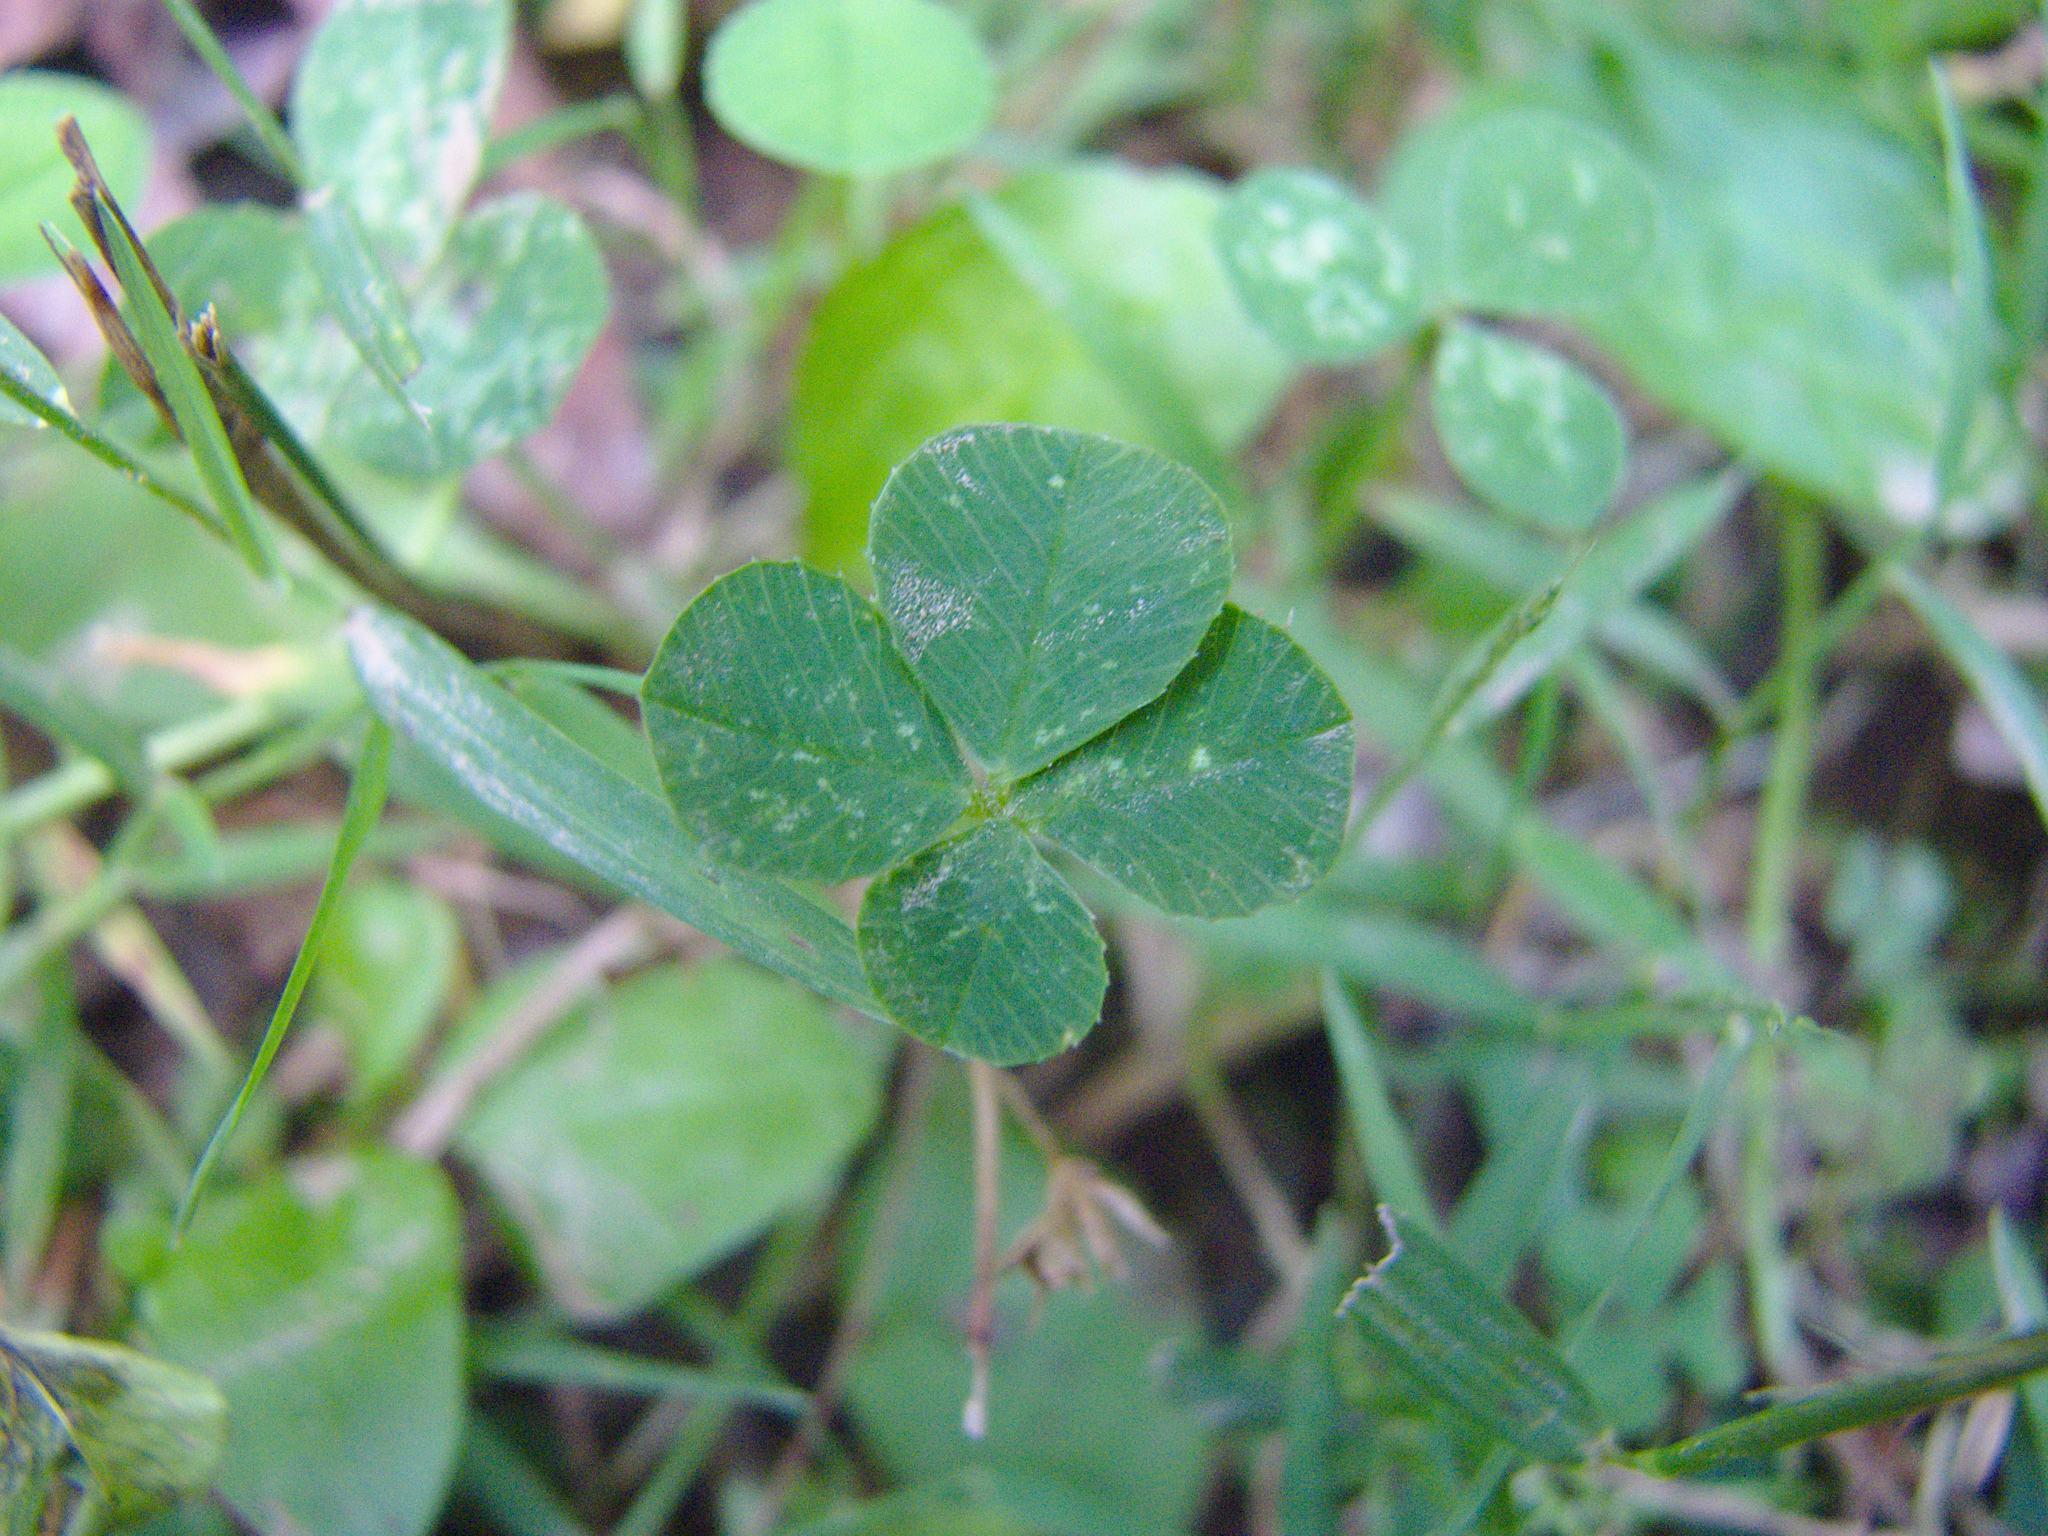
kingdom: Plantae
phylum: Tracheophyta
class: Magnoliopsida
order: Fabales
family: Fabaceae
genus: Trifolium
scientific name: Trifolium repens
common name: White clover
